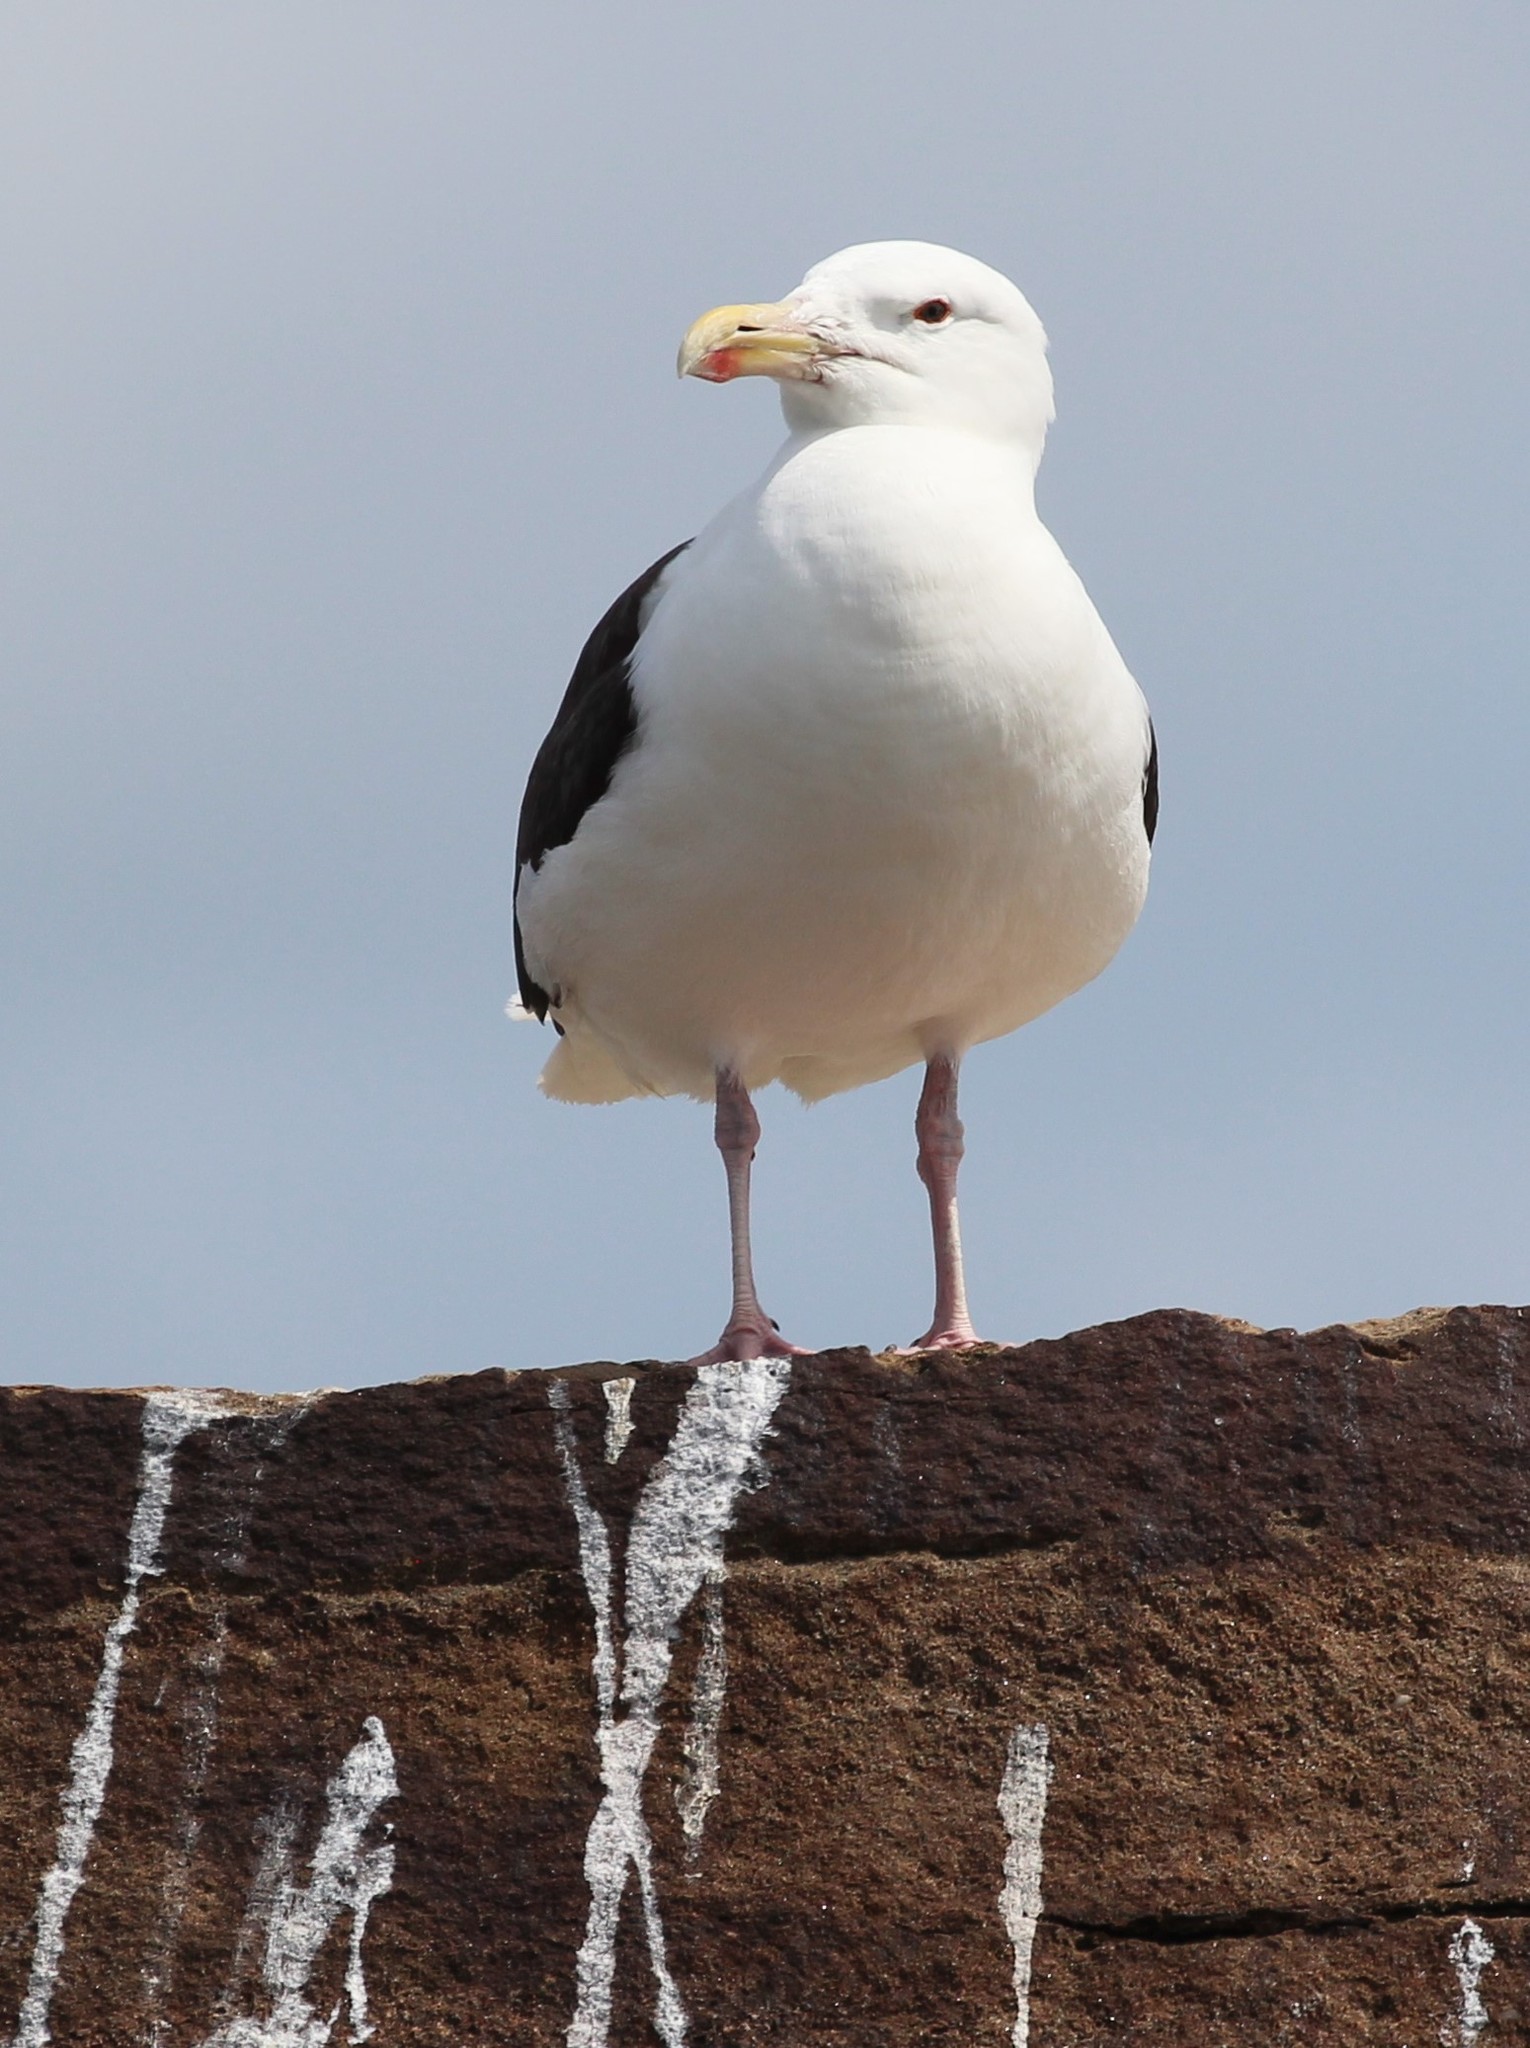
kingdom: Animalia
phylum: Chordata
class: Aves
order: Charadriiformes
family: Laridae
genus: Larus
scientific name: Larus marinus
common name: Great black-backed gull
